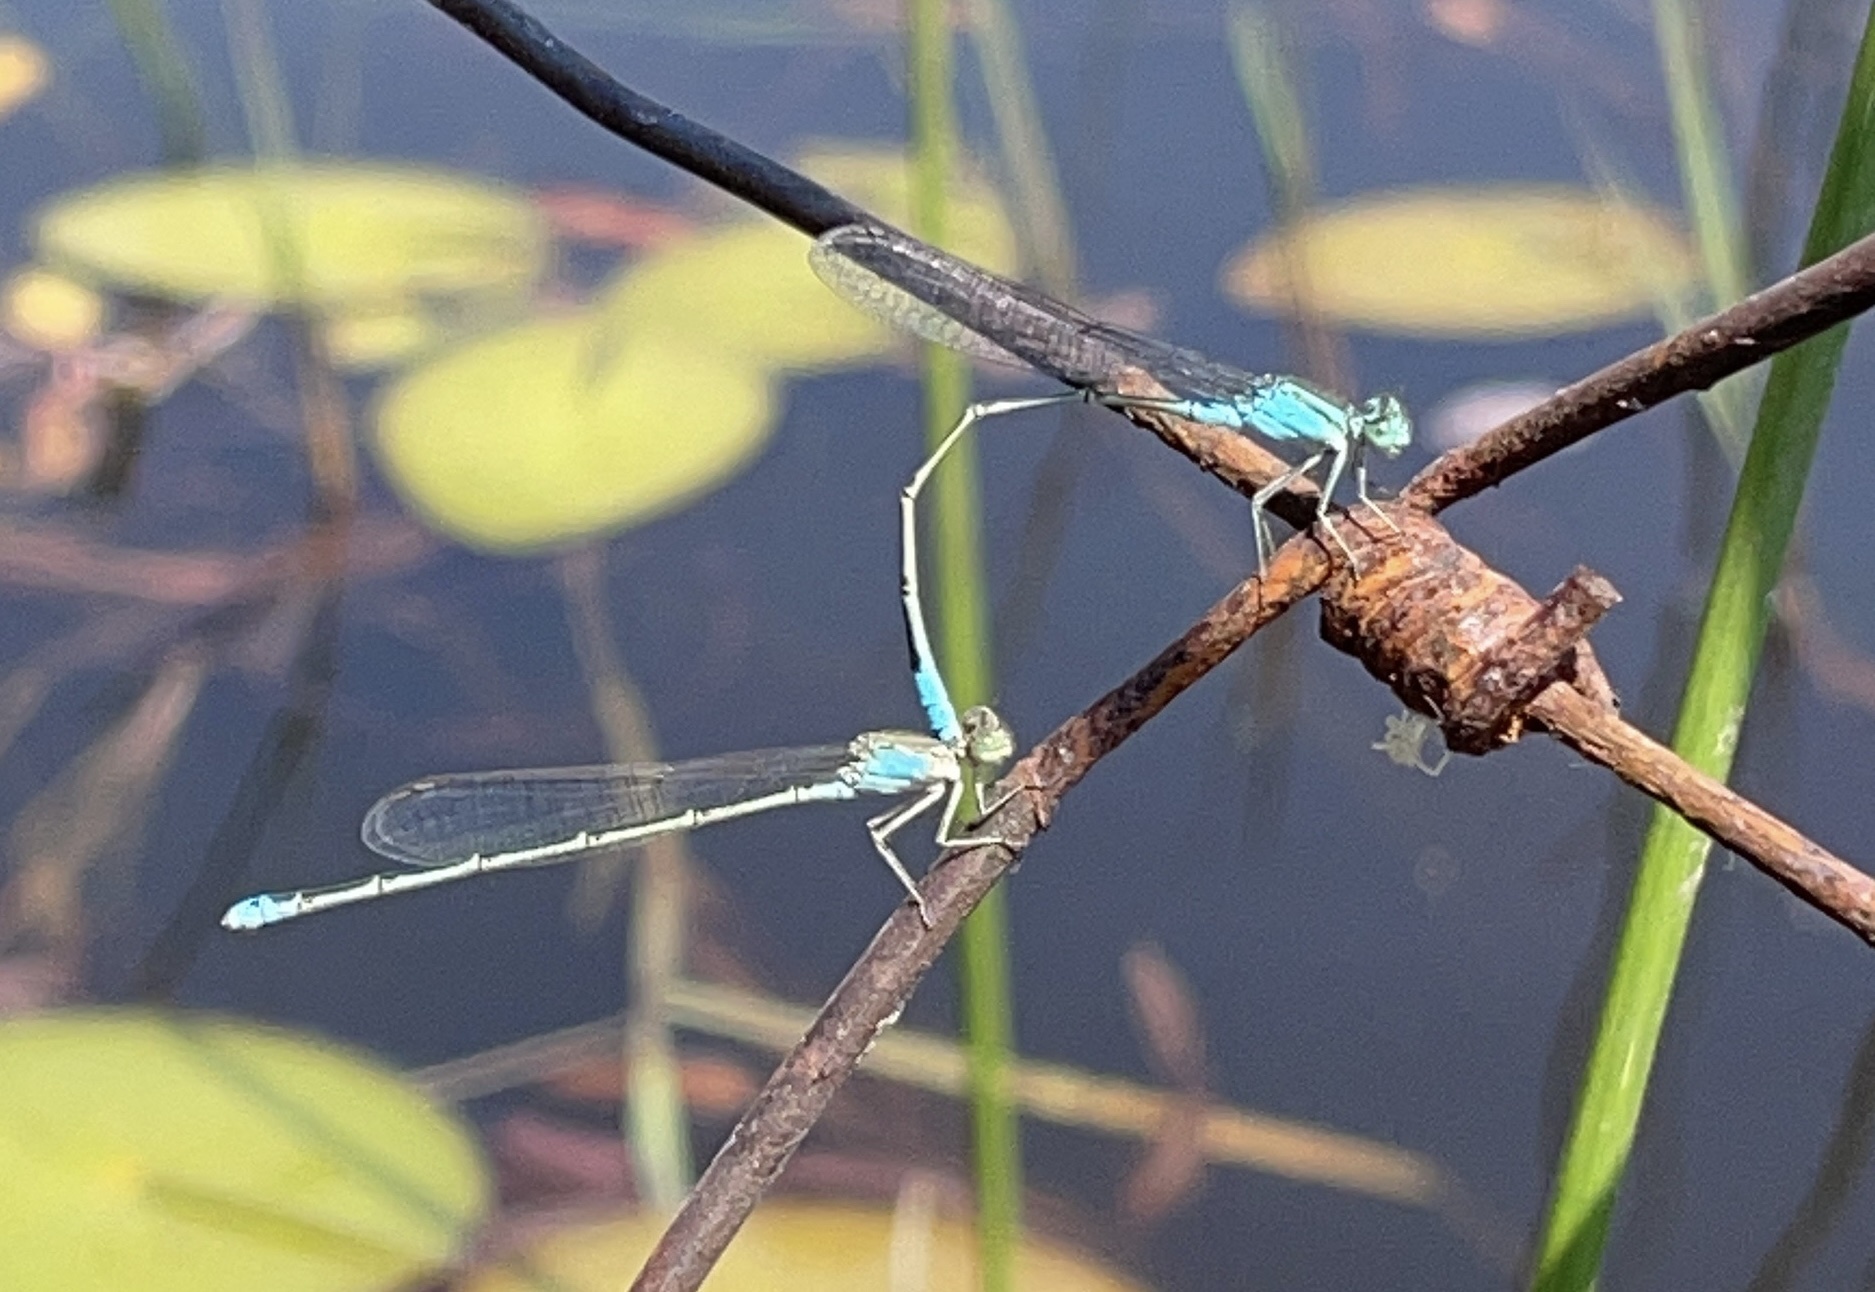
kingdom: Animalia
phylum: Arthropoda
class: Insecta
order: Odonata
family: Coenagrionidae
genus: Pseudagrion
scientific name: Pseudagrion coeleste
